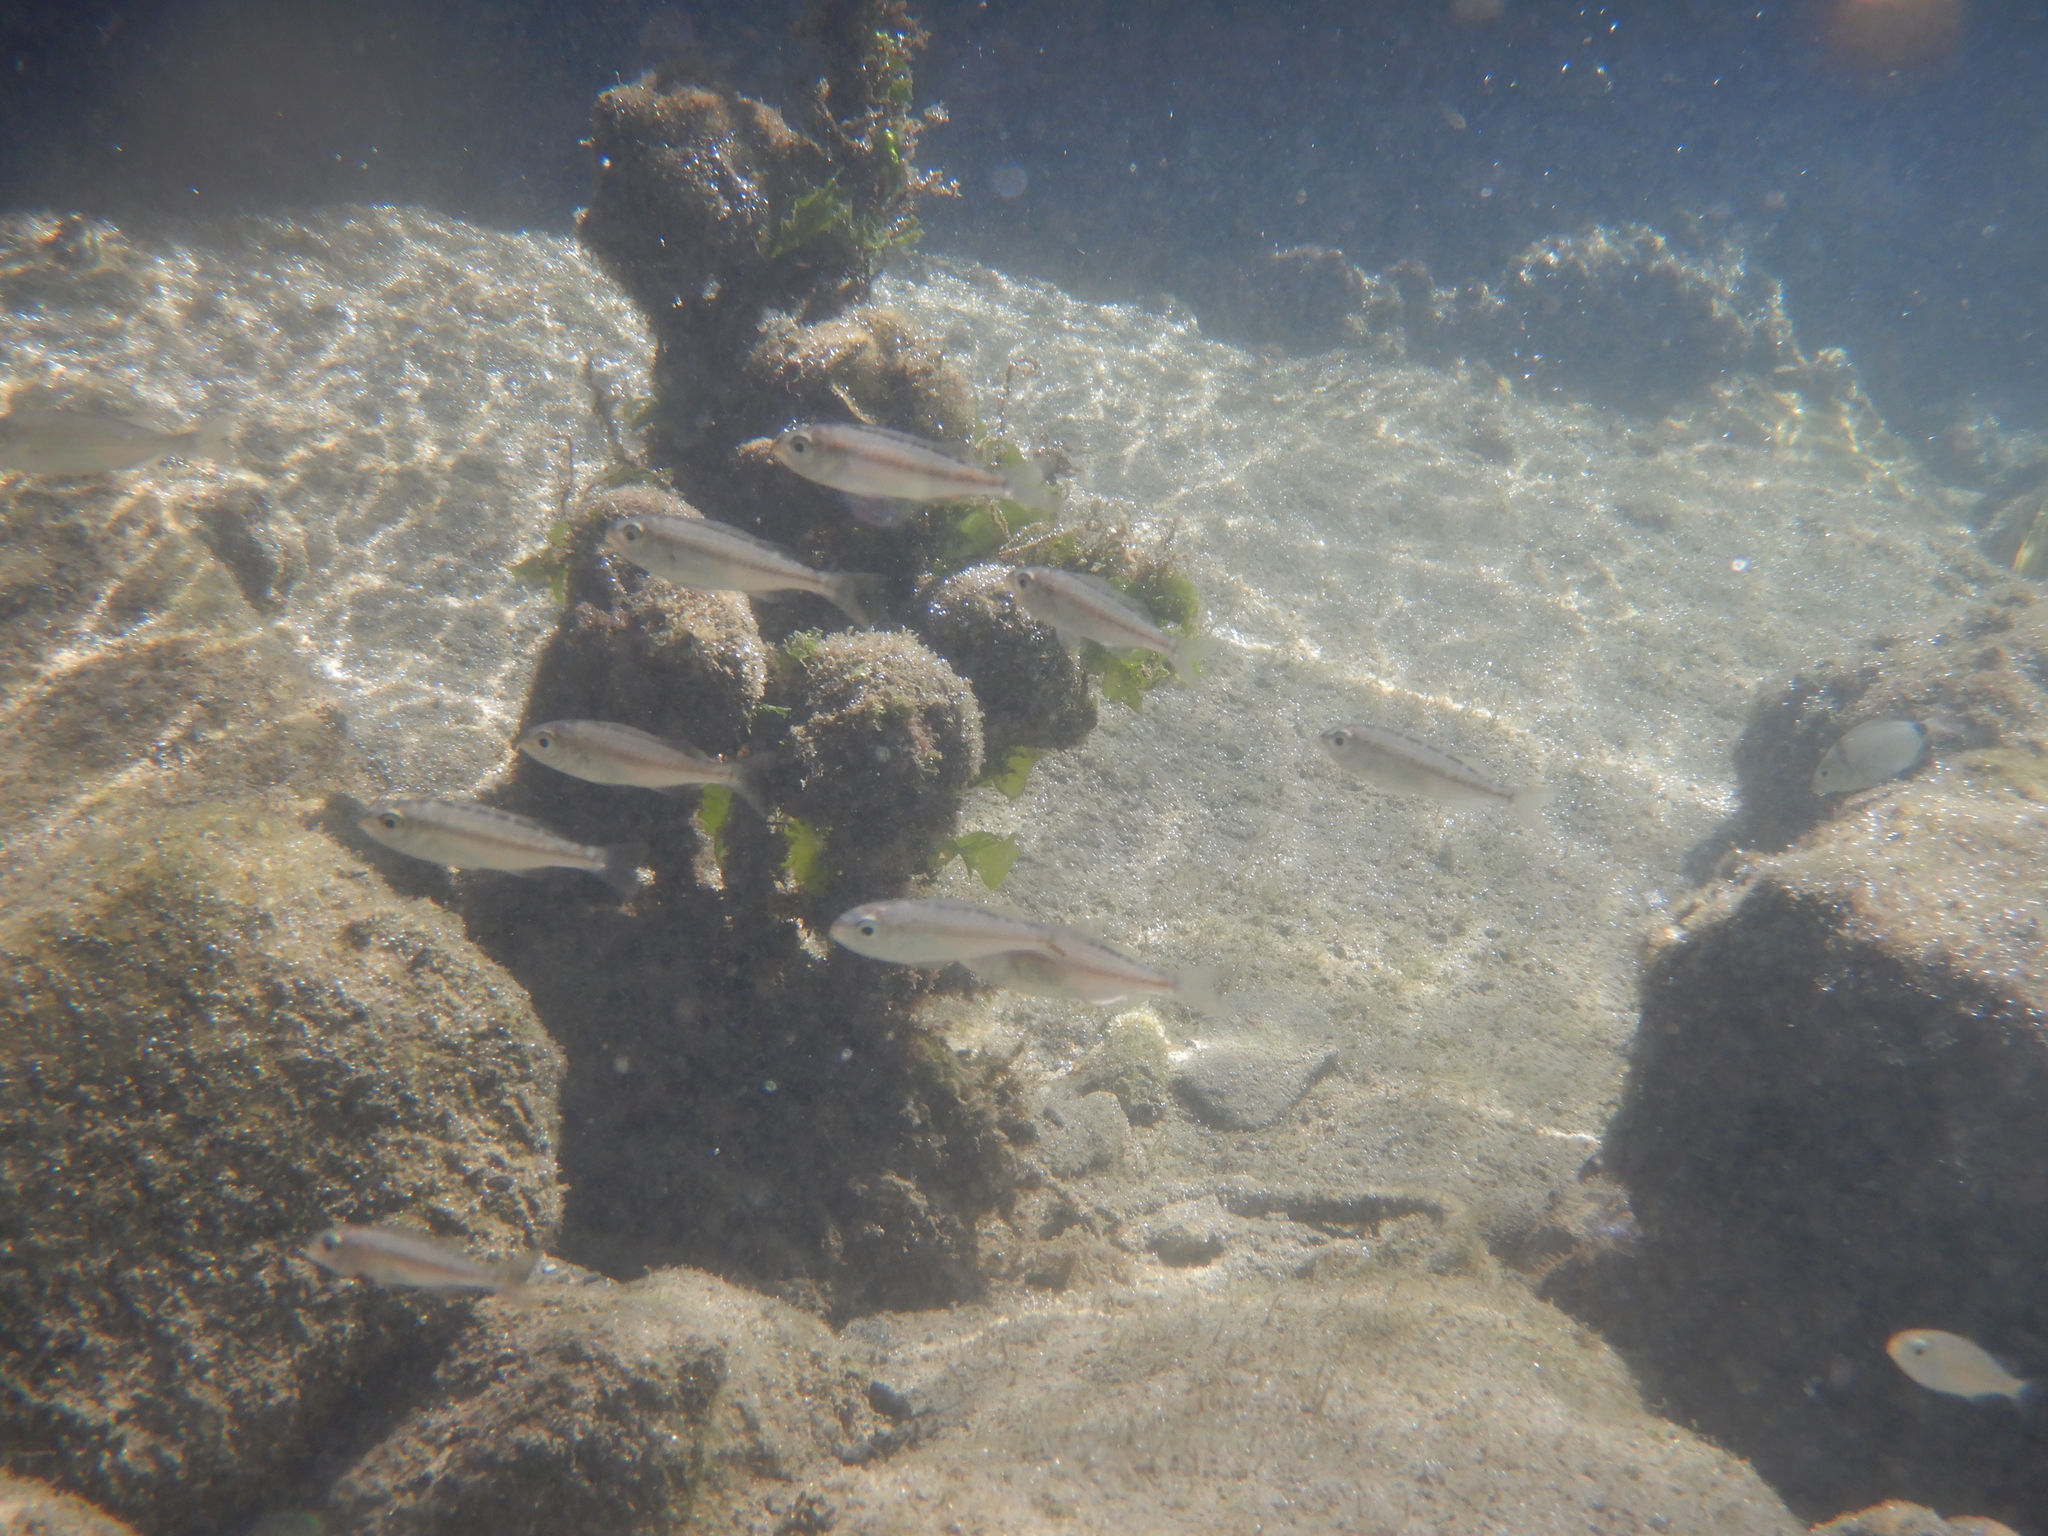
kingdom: Animalia
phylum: Chordata
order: Perciformes
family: Sparidae
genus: Pagellus
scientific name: Pagellus
